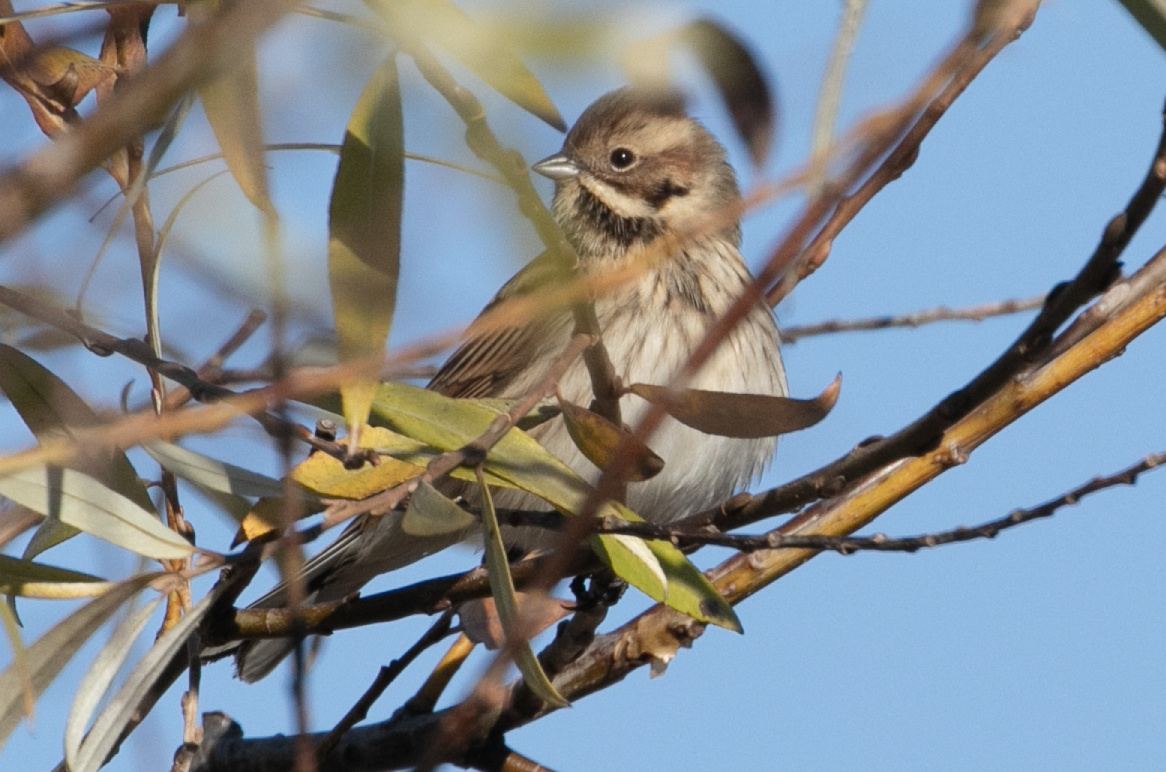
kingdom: Animalia
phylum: Chordata
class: Aves
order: Passeriformes
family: Emberizidae
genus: Emberiza
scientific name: Emberiza schoeniclus
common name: Reed bunting
